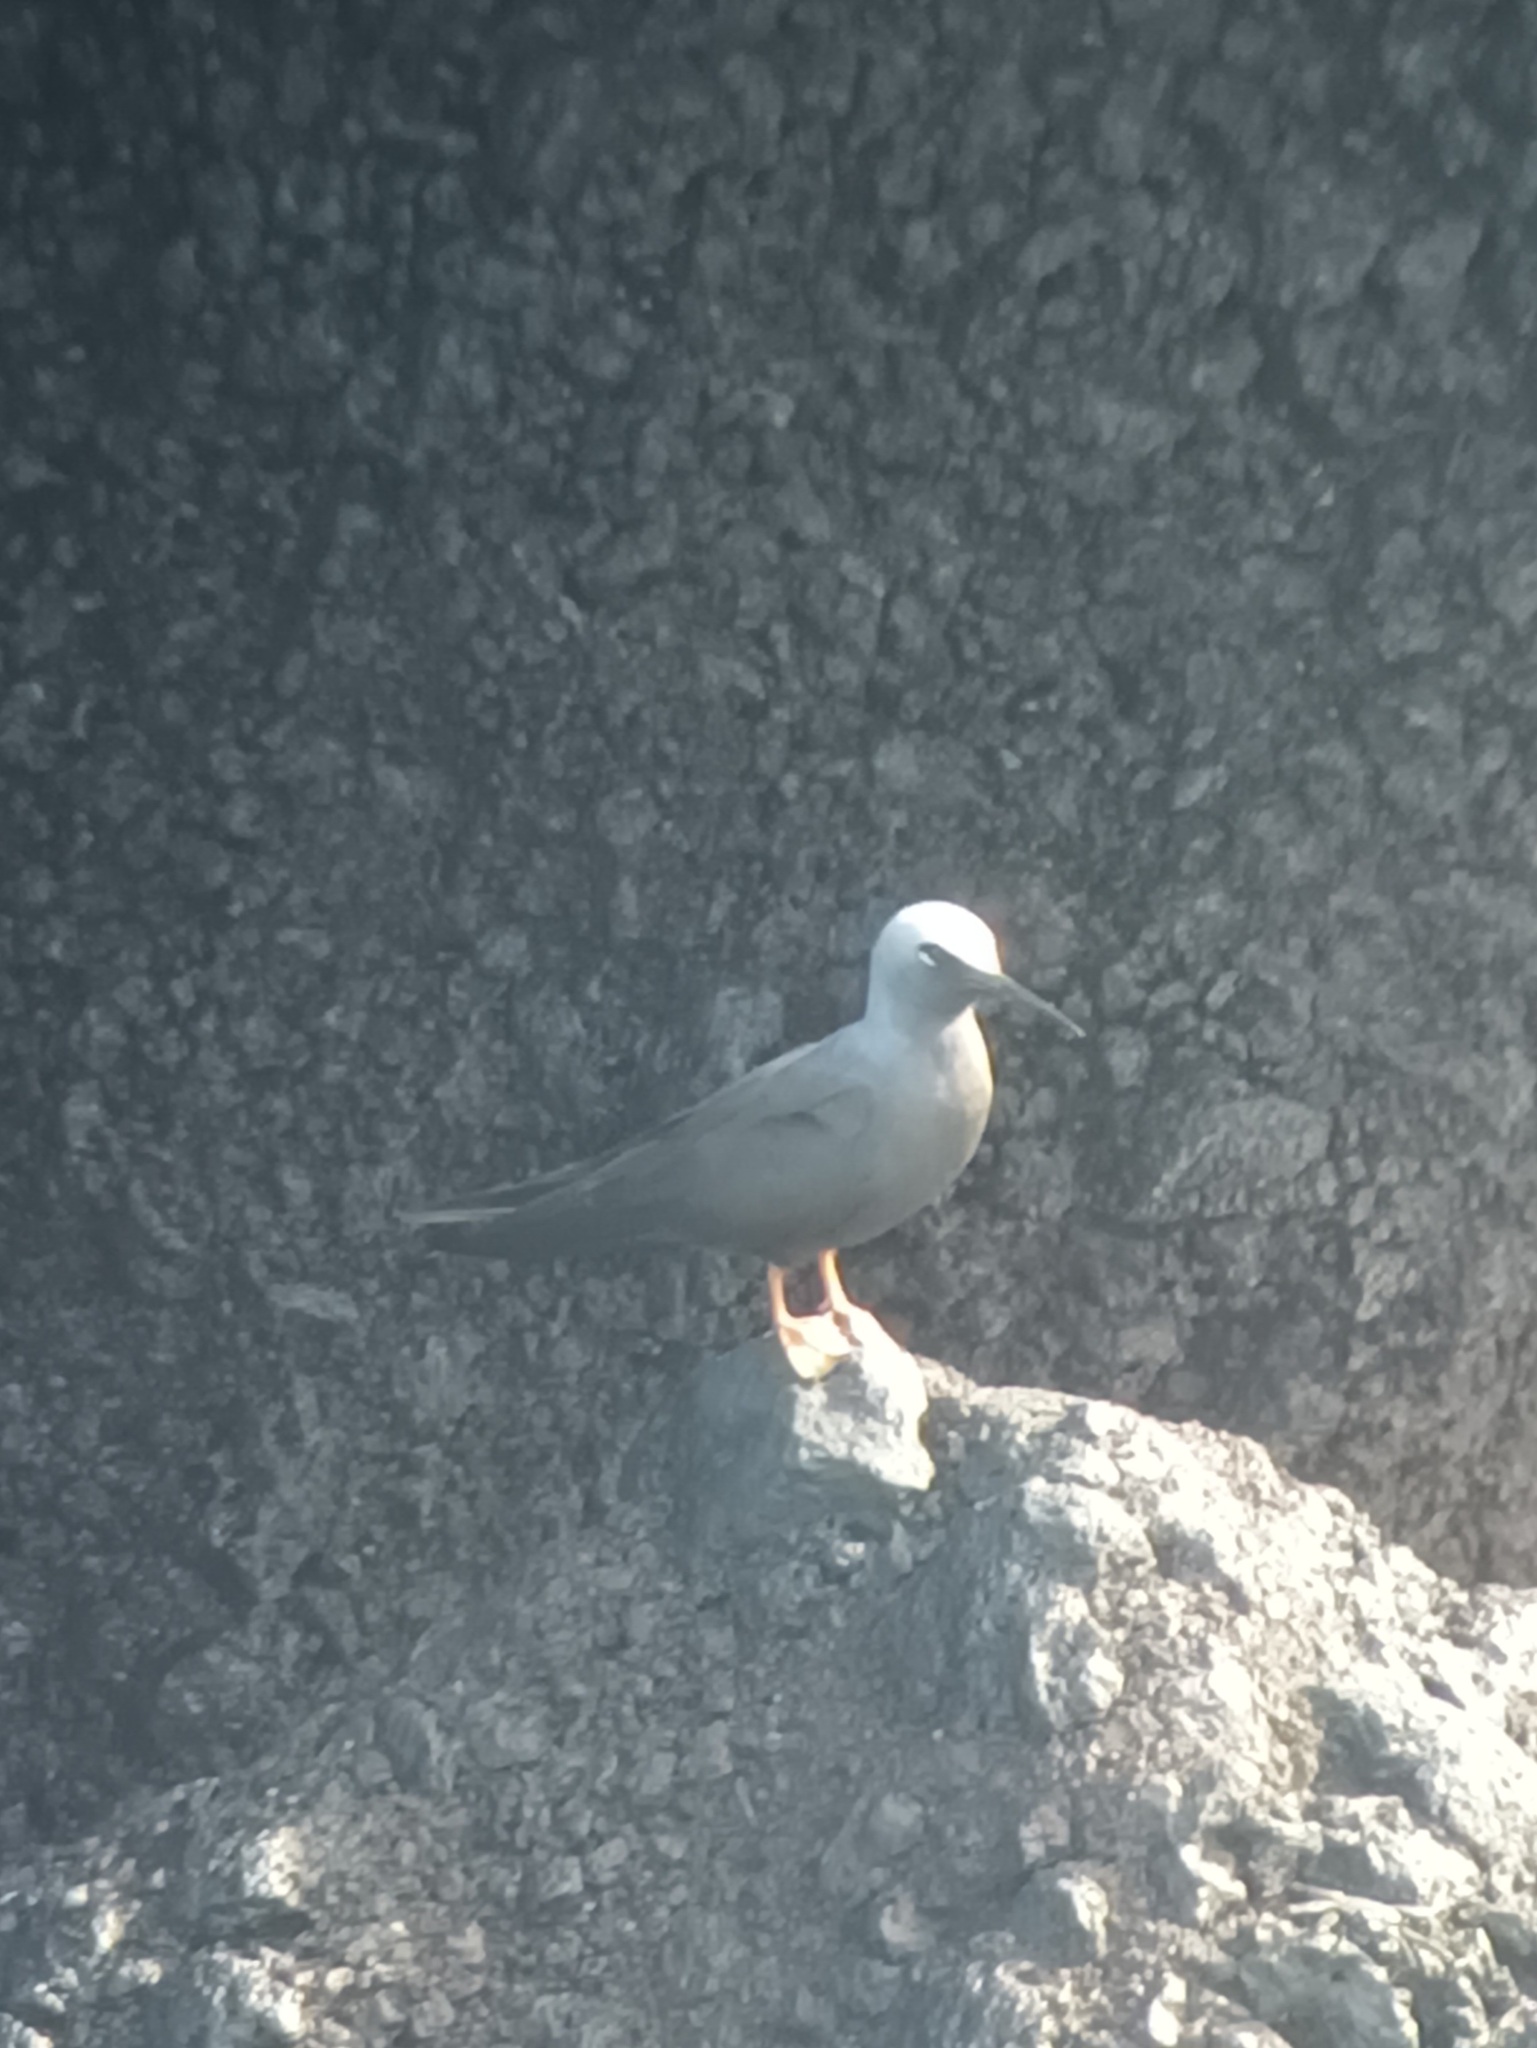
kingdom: Animalia
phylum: Chordata
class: Aves
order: Charadriiformes
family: Laridae
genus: Anous
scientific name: Anous minutus
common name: Black noddy
